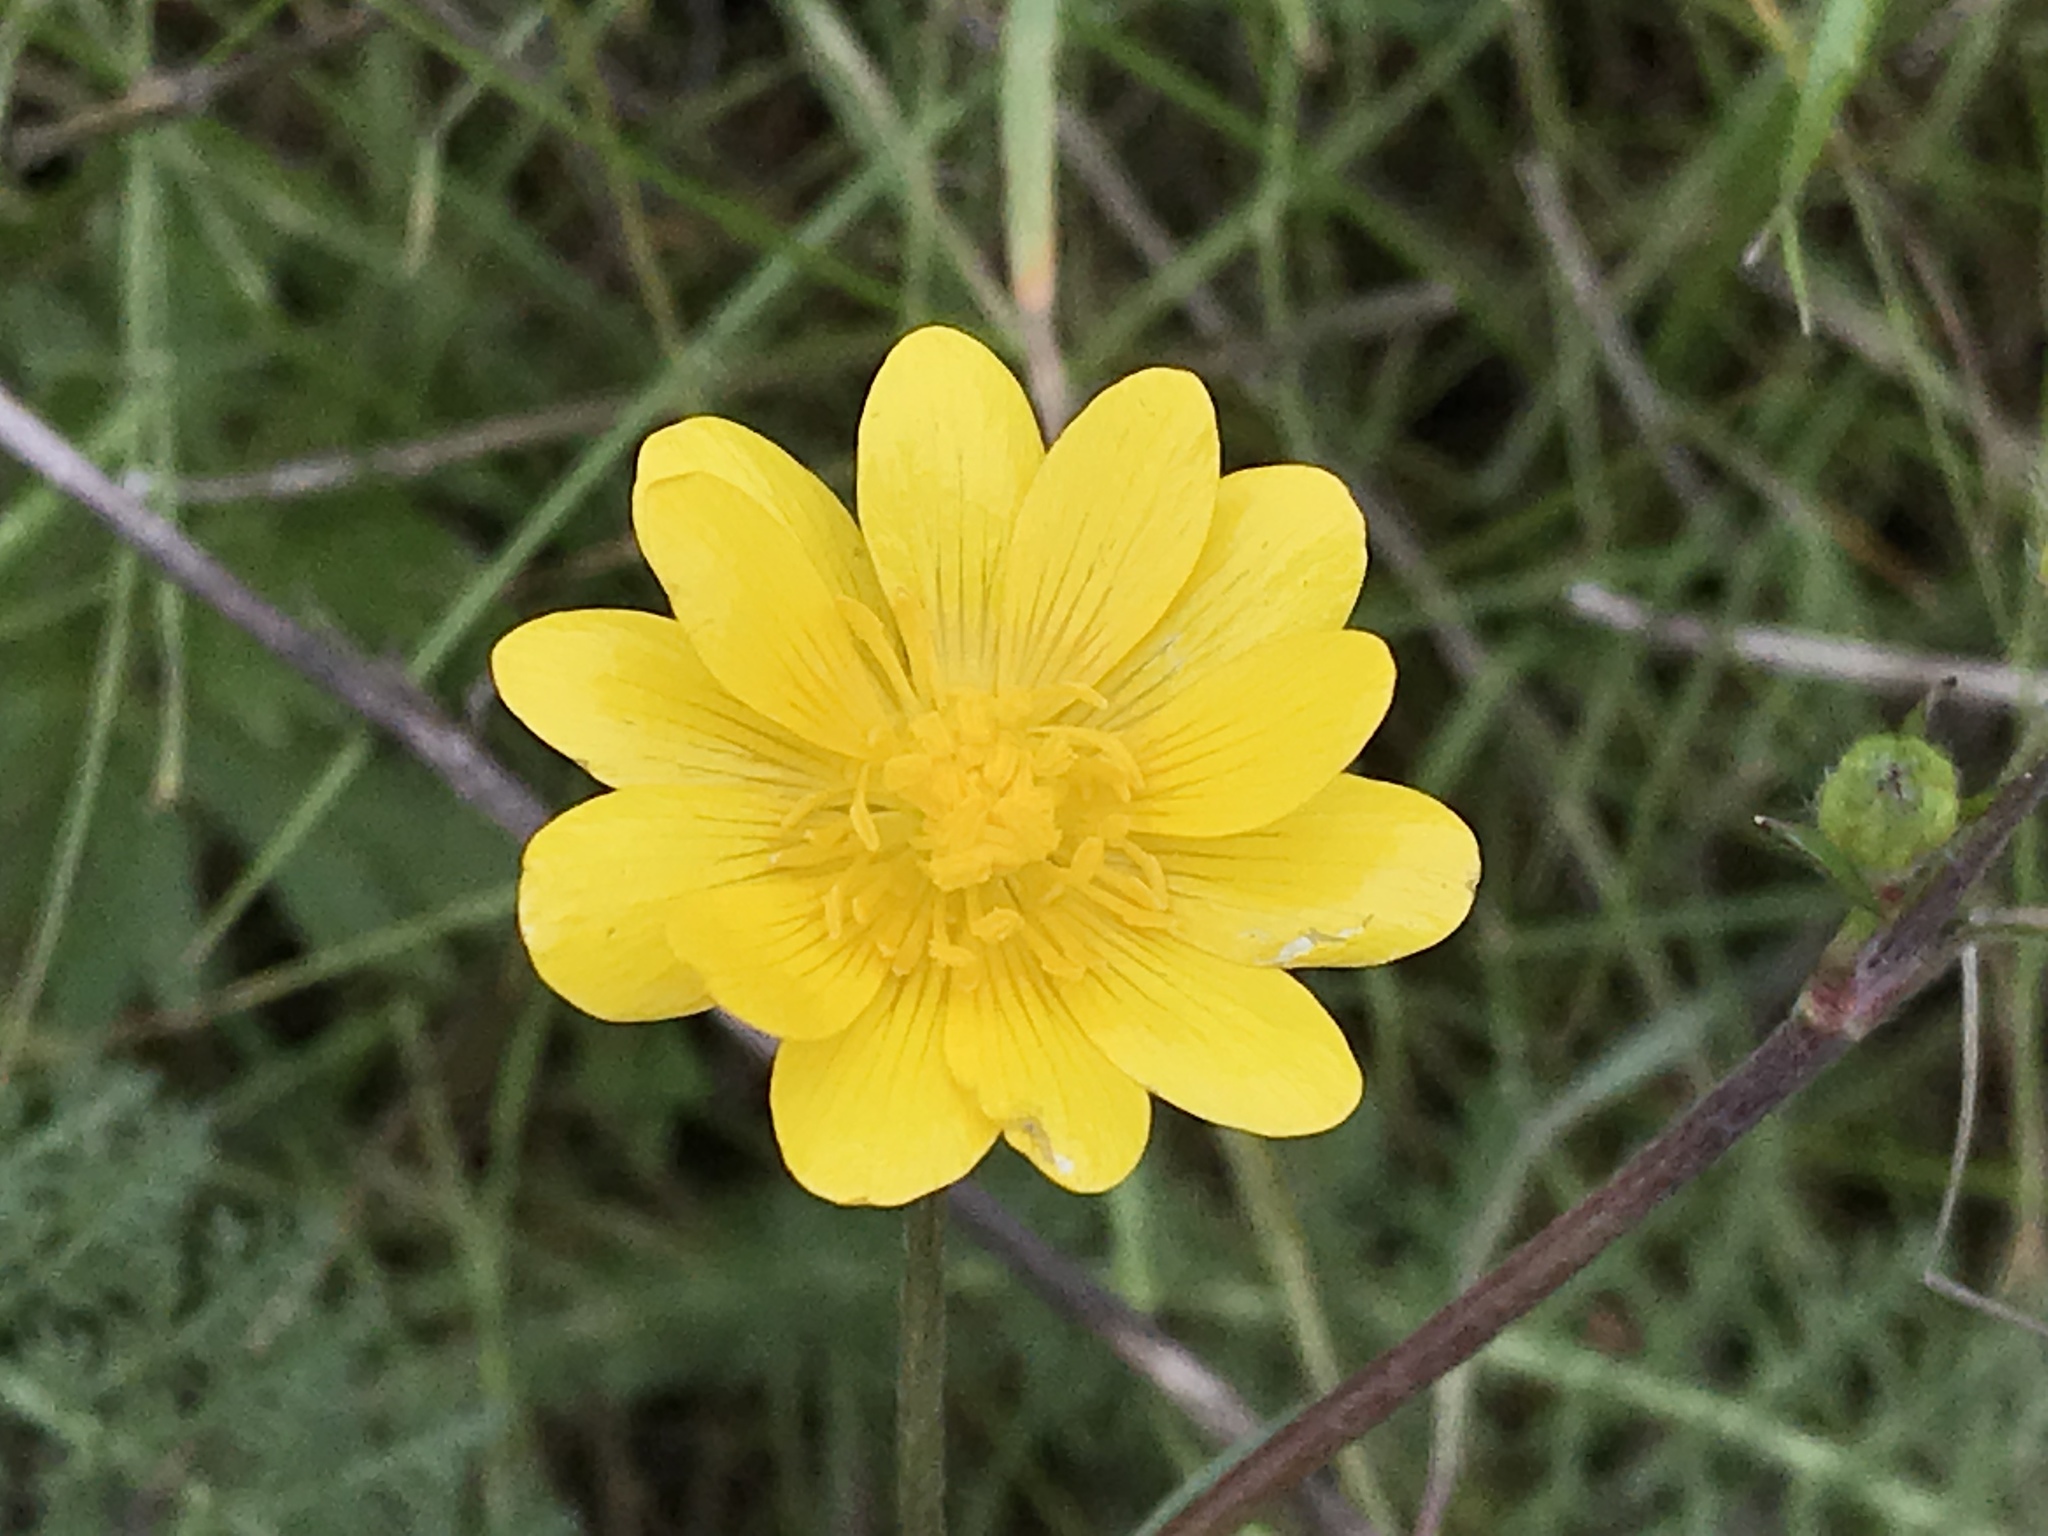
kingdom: Plantae
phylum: Tracheophyta
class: Magnoliopsida
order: Ranunculales
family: Ranunculaceae
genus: Ranunculus
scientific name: Ranunculus californicus
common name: California buttercup
